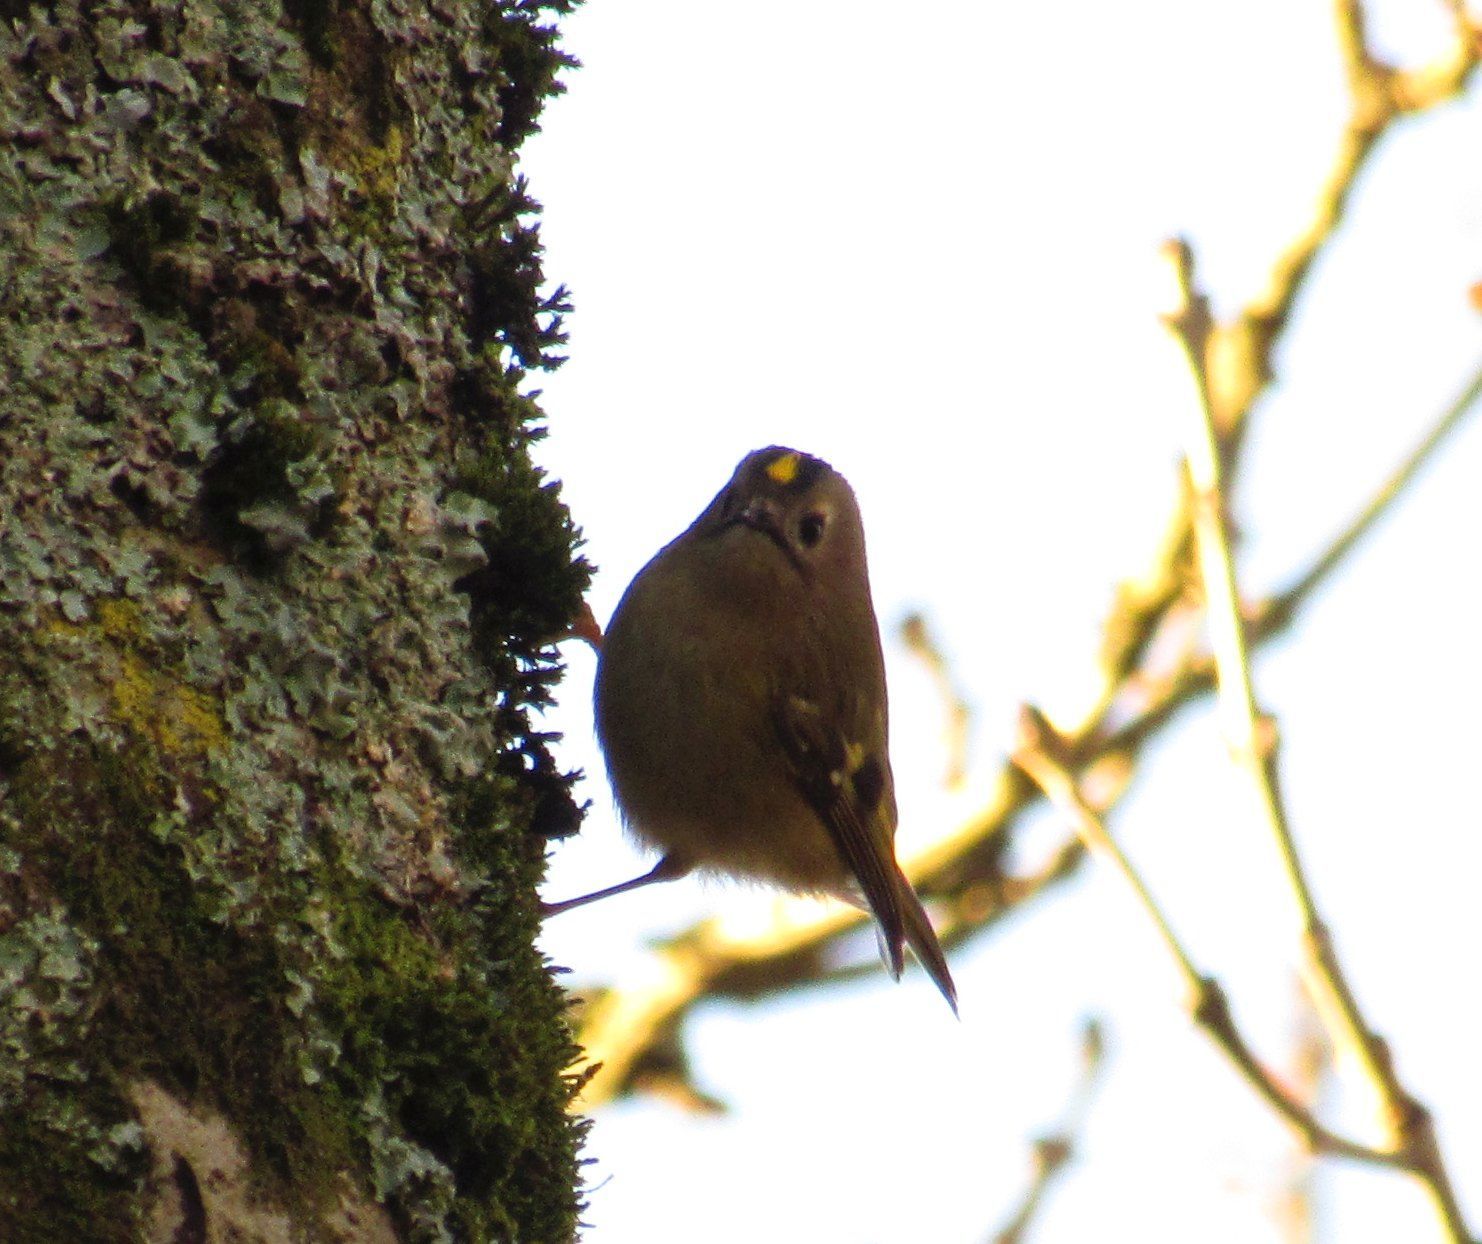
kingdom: Animalia
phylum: Chordata
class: Aves
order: Passeriformes
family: Regulidae
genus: Regulus
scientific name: Regulus regulus
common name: Goldcrest
